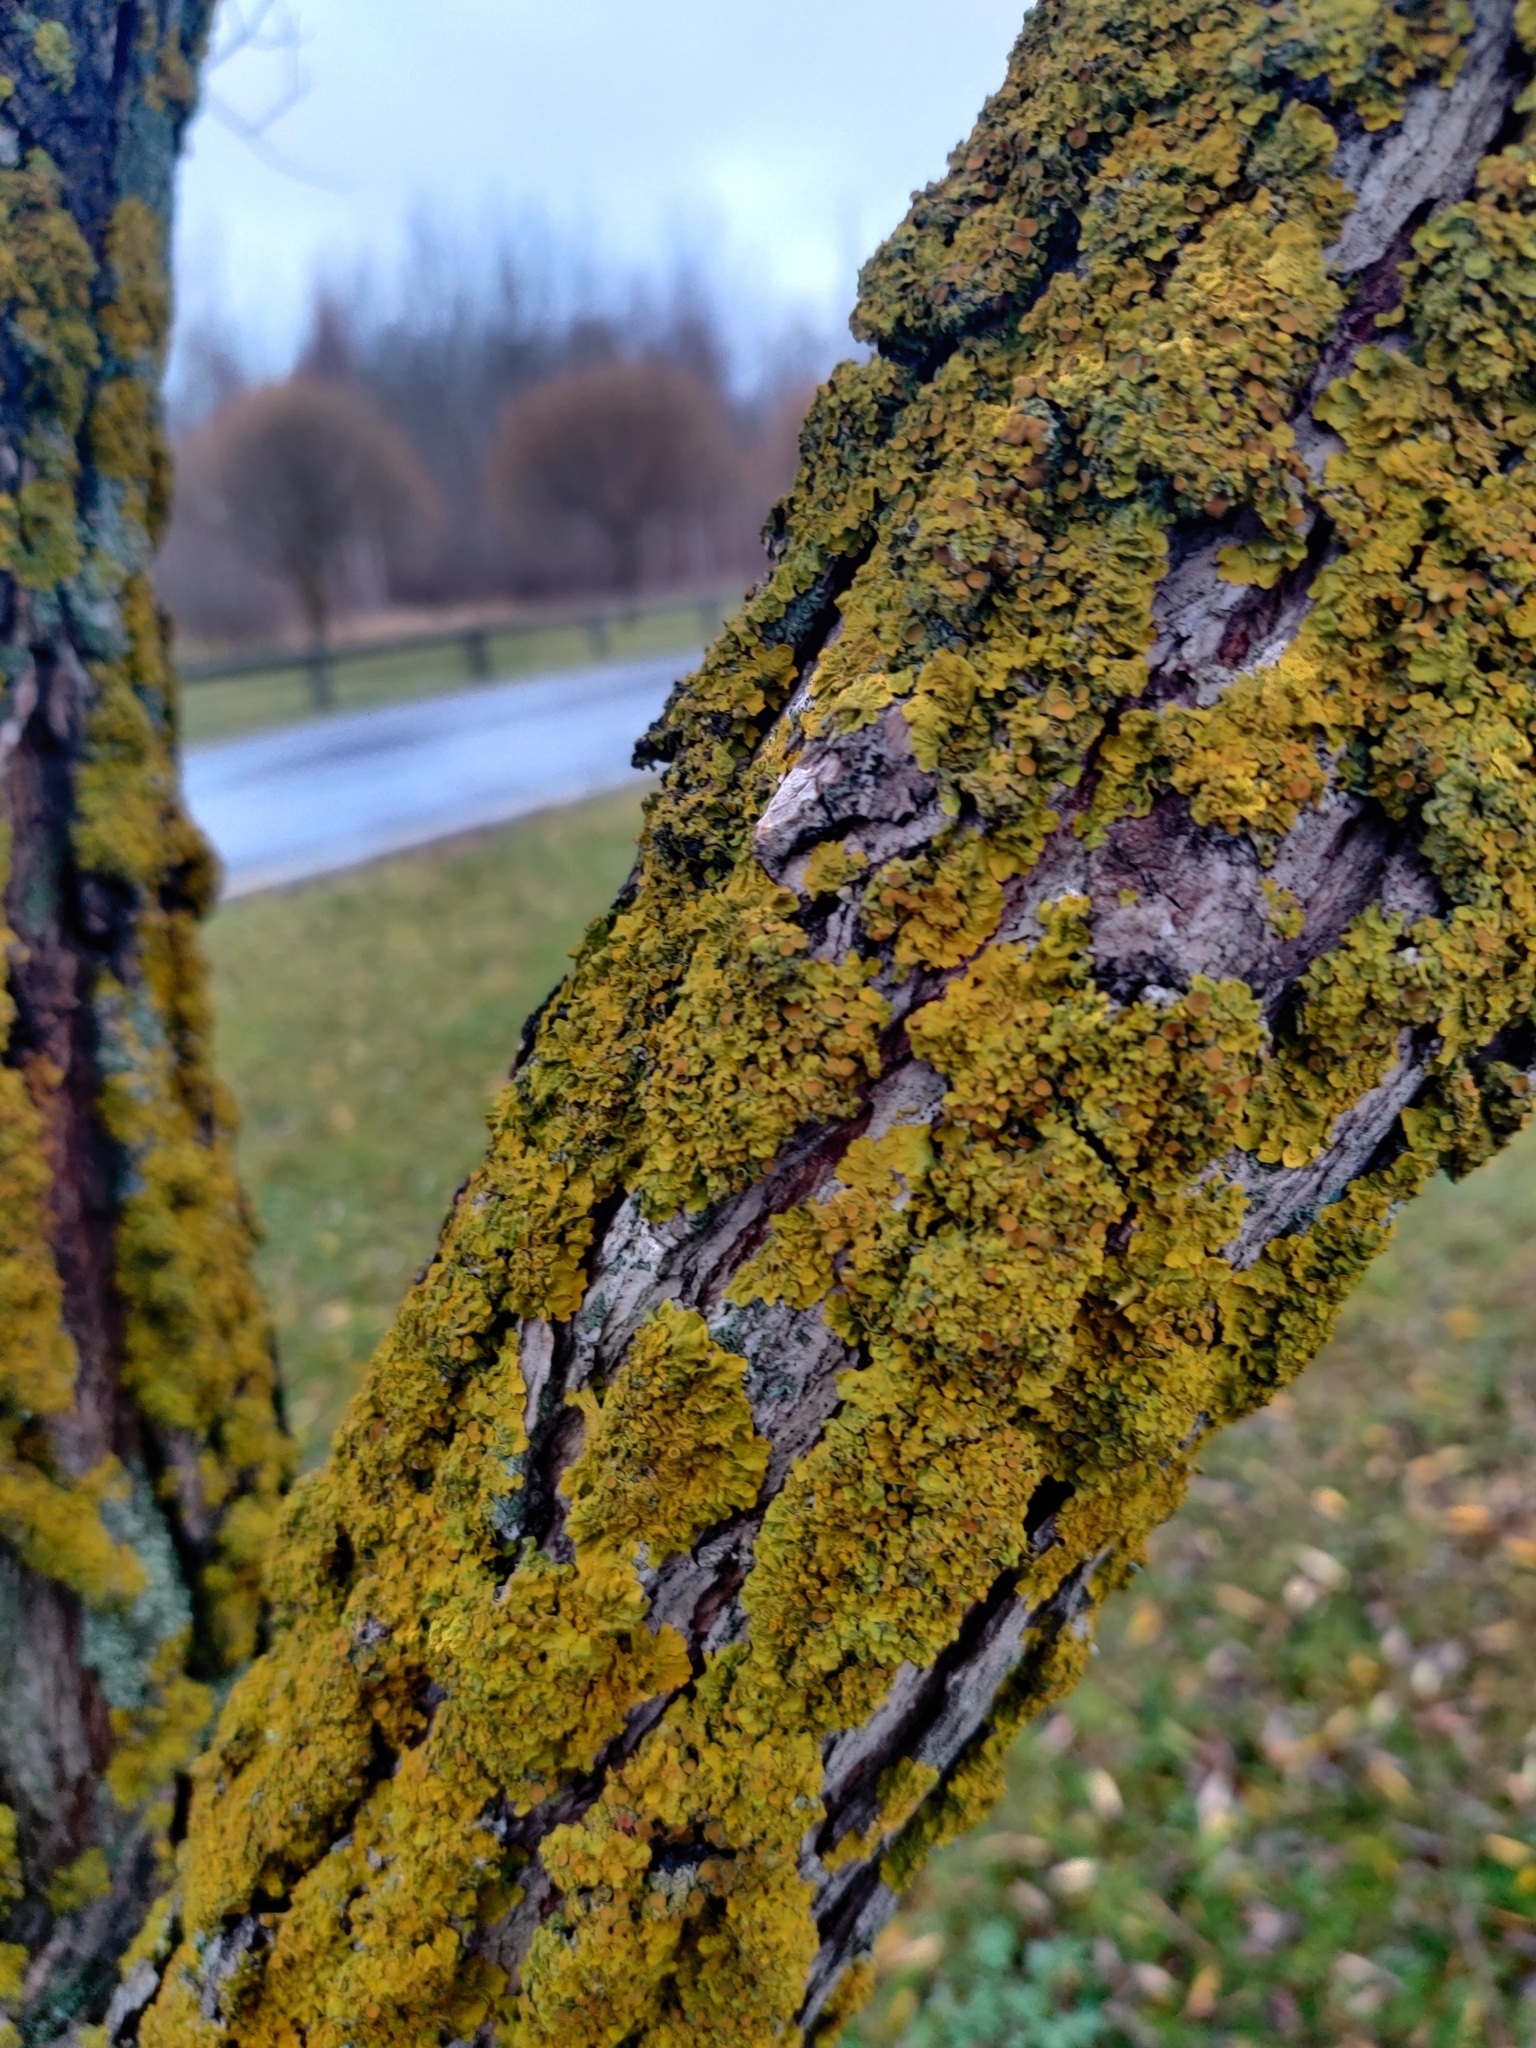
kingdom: Fungi
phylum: Ascomycota
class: Lecanoromycetes
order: Teloschistales
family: Teloschistaceae
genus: Xanthoria
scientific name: Xanthoria parietina
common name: Common orange lichen
